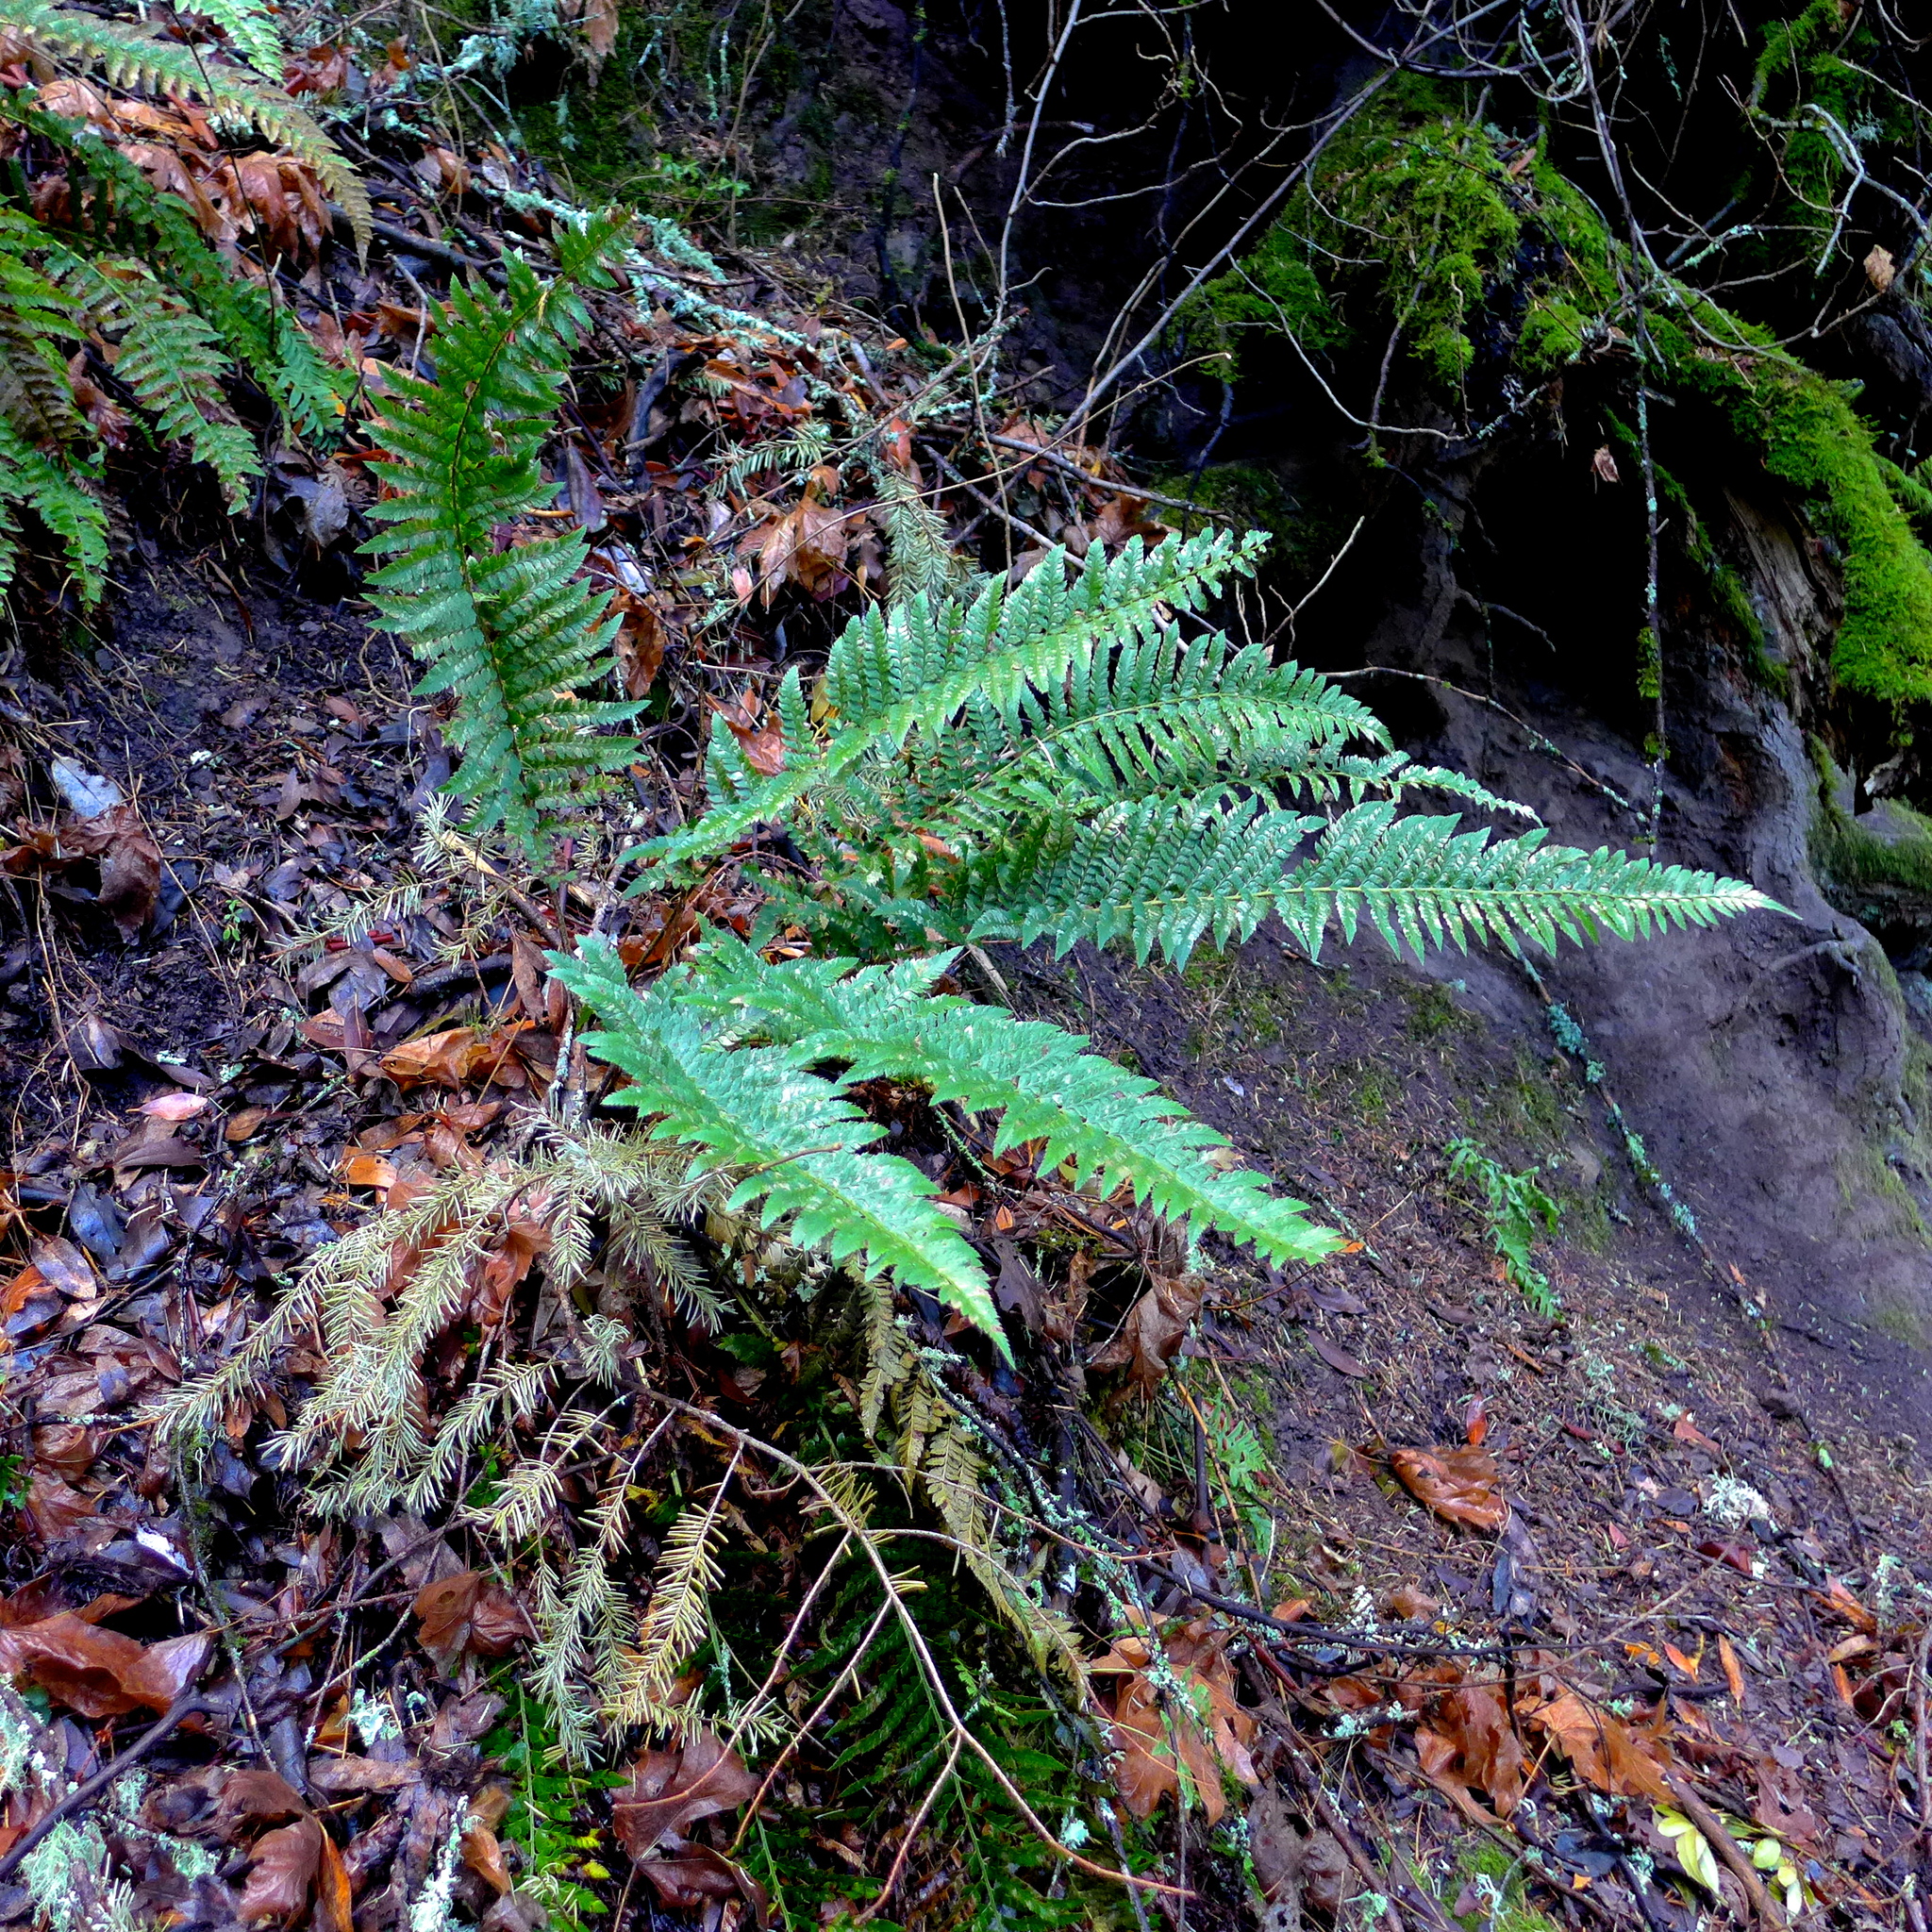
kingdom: Plantae
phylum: Tracheophyta
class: Polypodiopsida
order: Polypodiales
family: Dryopteridaceae
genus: Polystichum
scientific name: Polystichum californicum
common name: California sword fern
